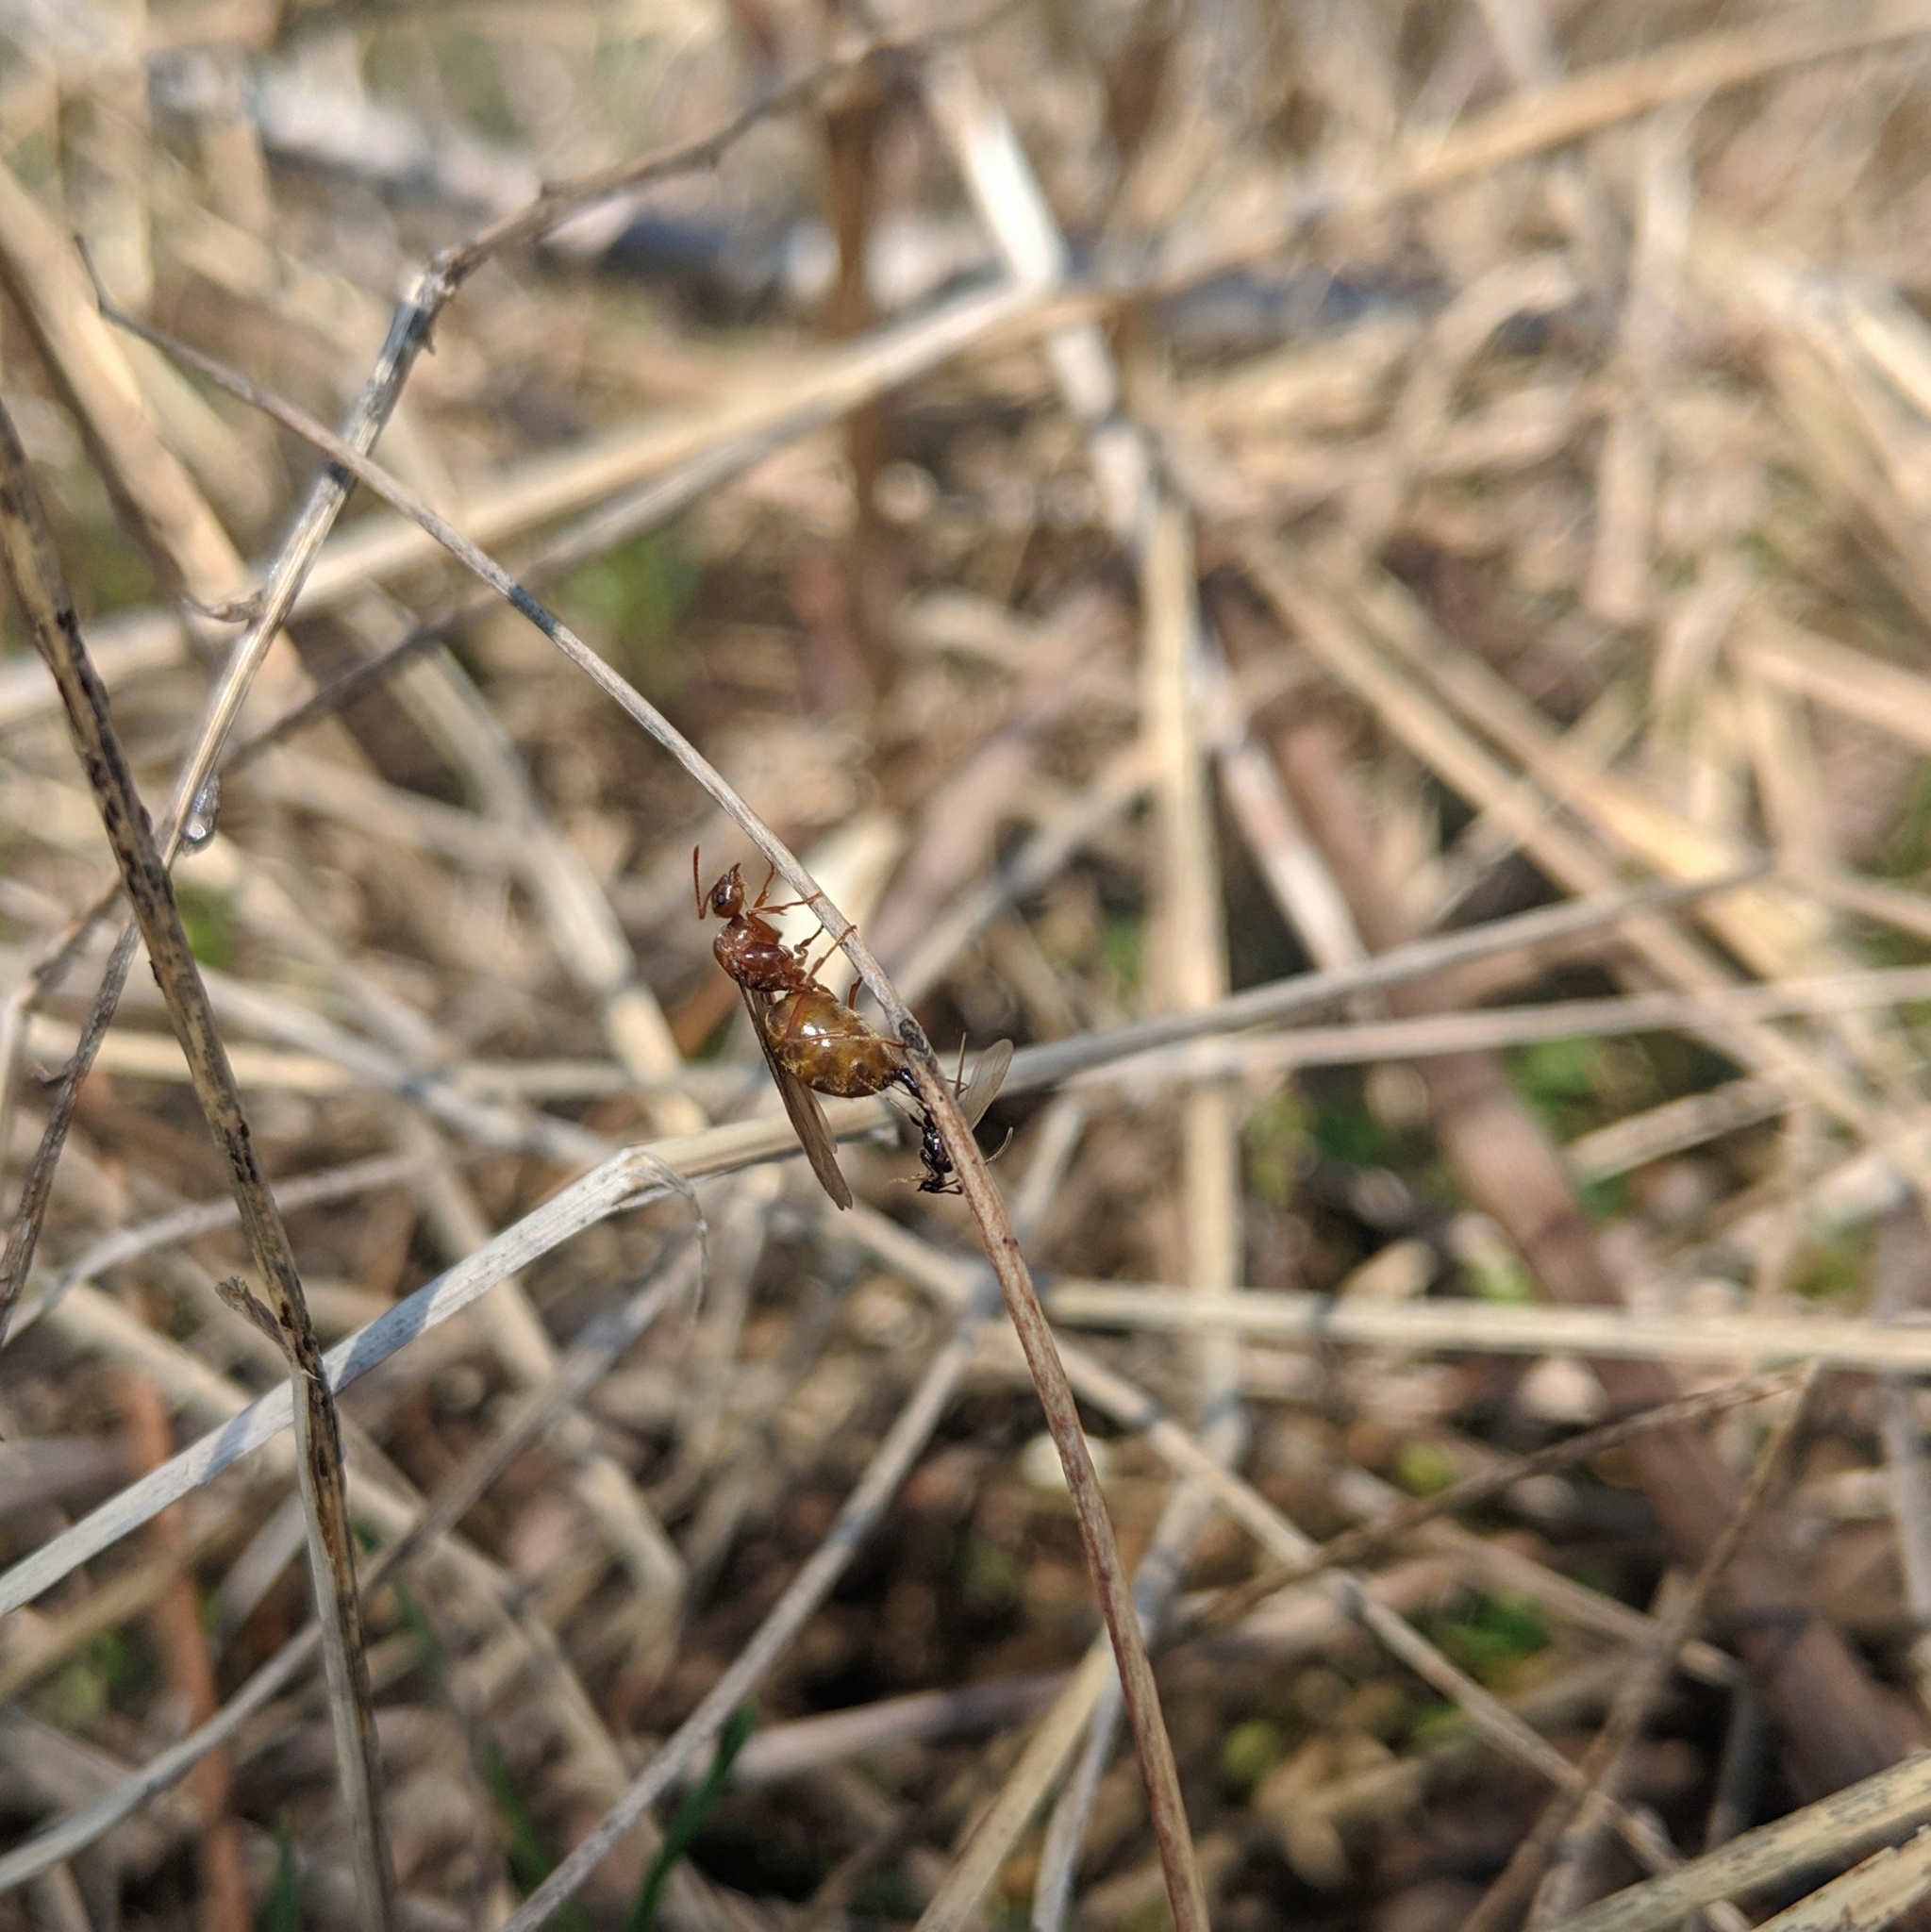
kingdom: Animalia
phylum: Arthropoda
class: Insecta
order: Hymenoptera
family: Formicidae
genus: Prenolepis
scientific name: Prenolepis imparis
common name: Small honey ant
